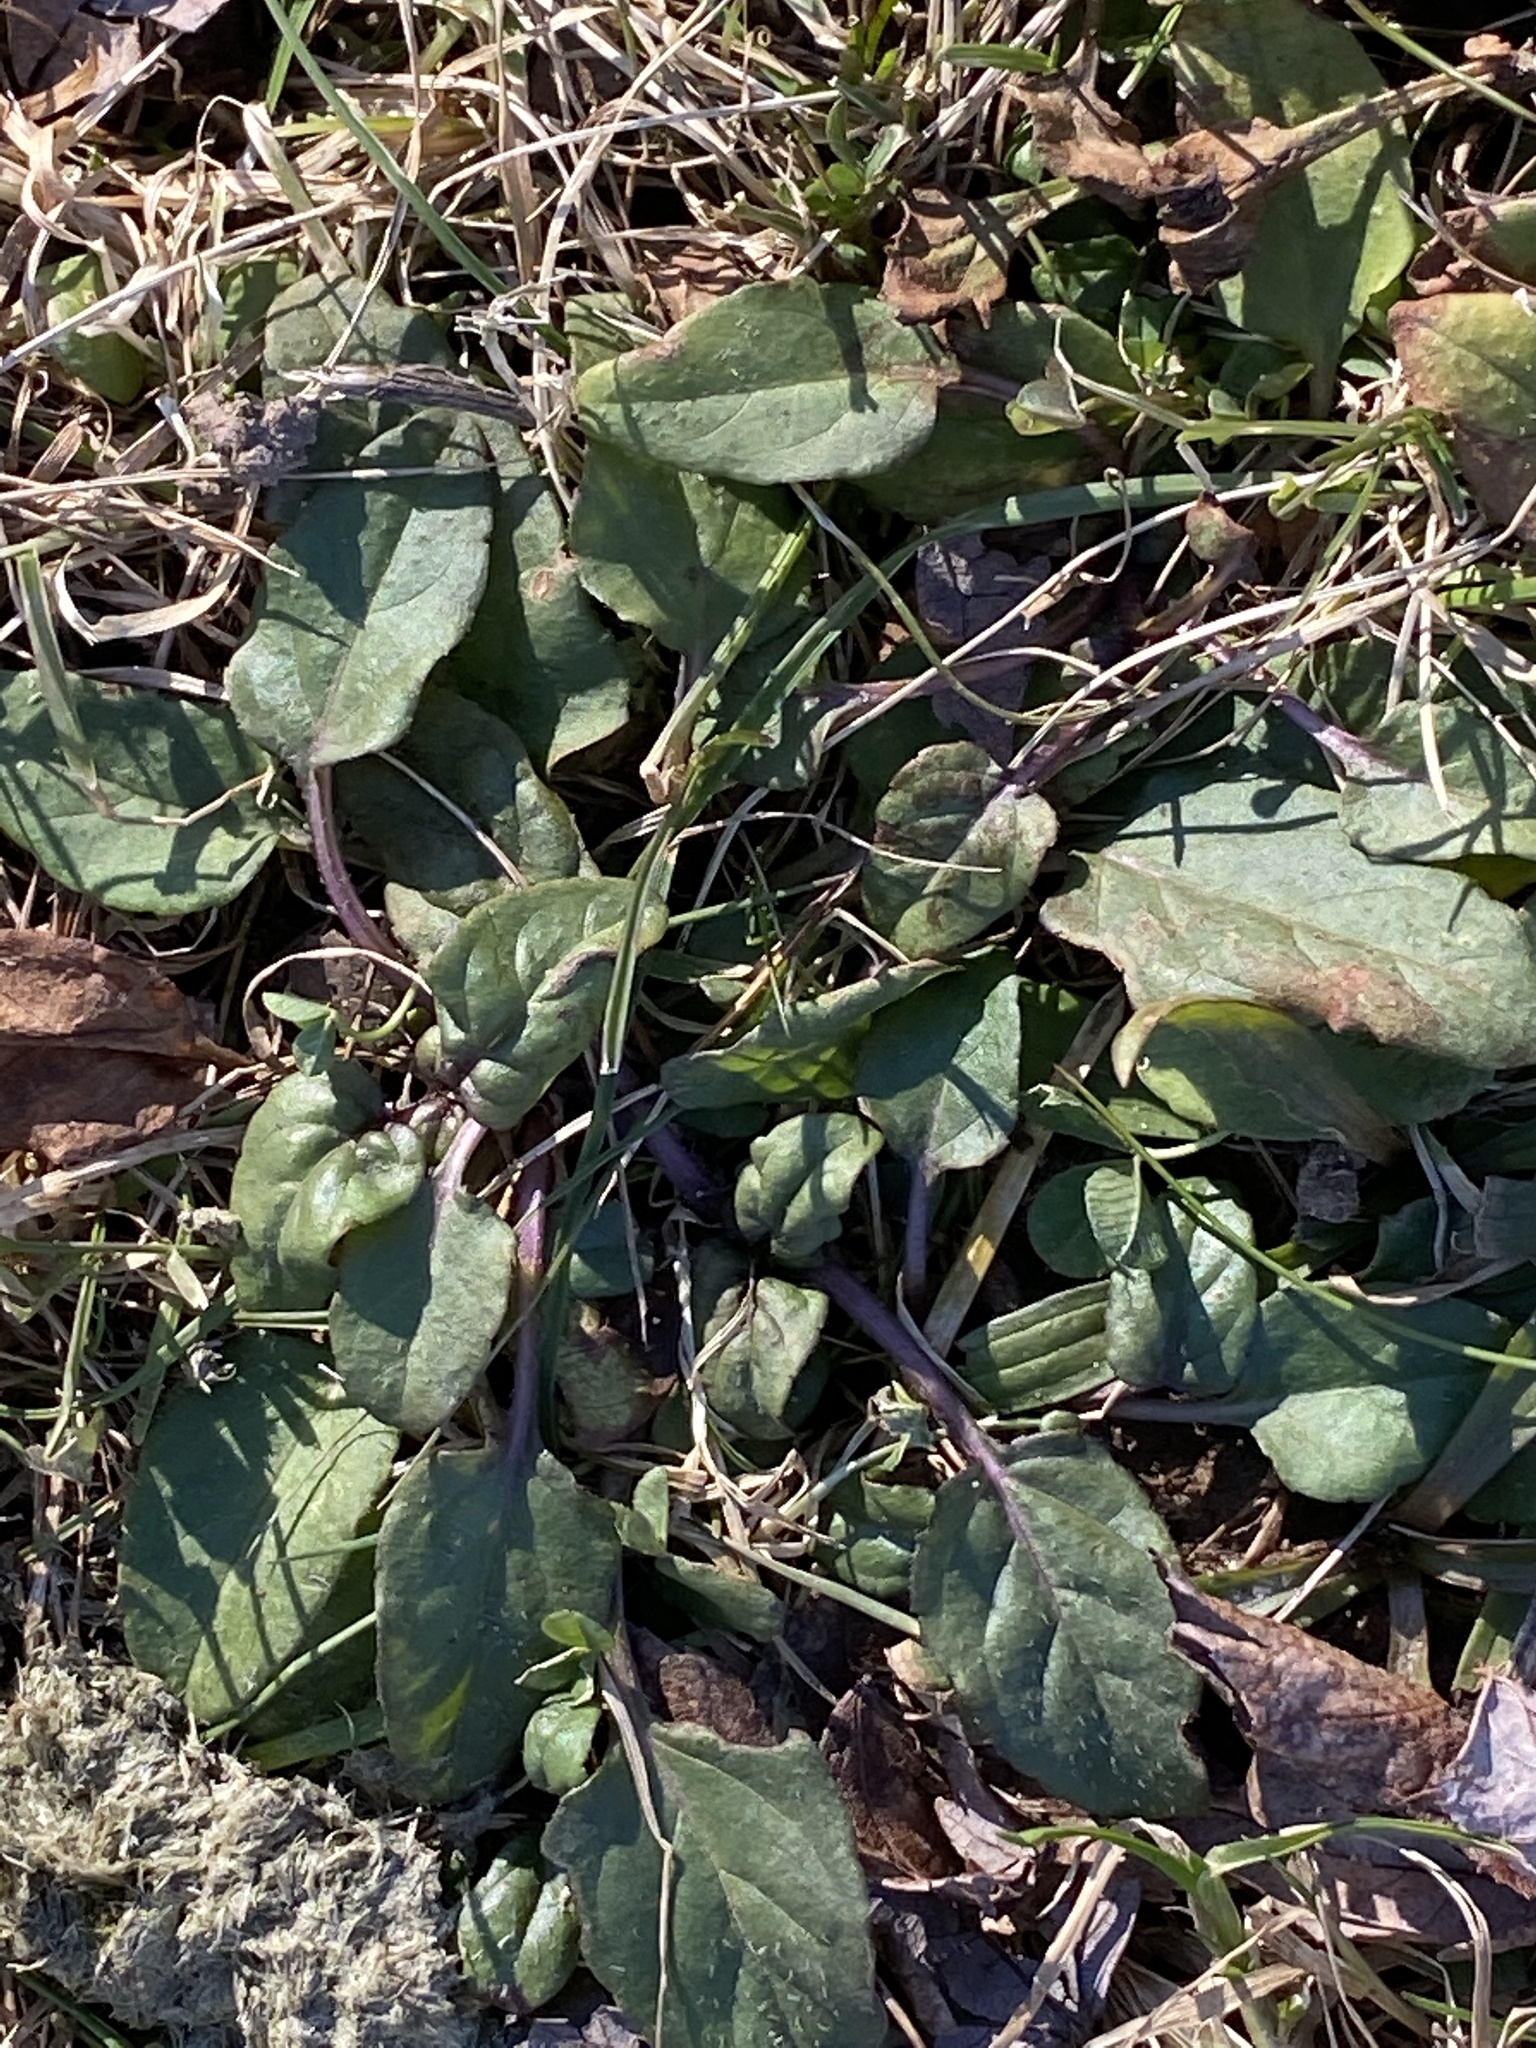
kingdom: Plantae
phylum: Tracheophyta
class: Magnoliopsida
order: Lamiales
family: Lamiaceae
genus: Prunella
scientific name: Prunella vulgaris
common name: Heal-all
